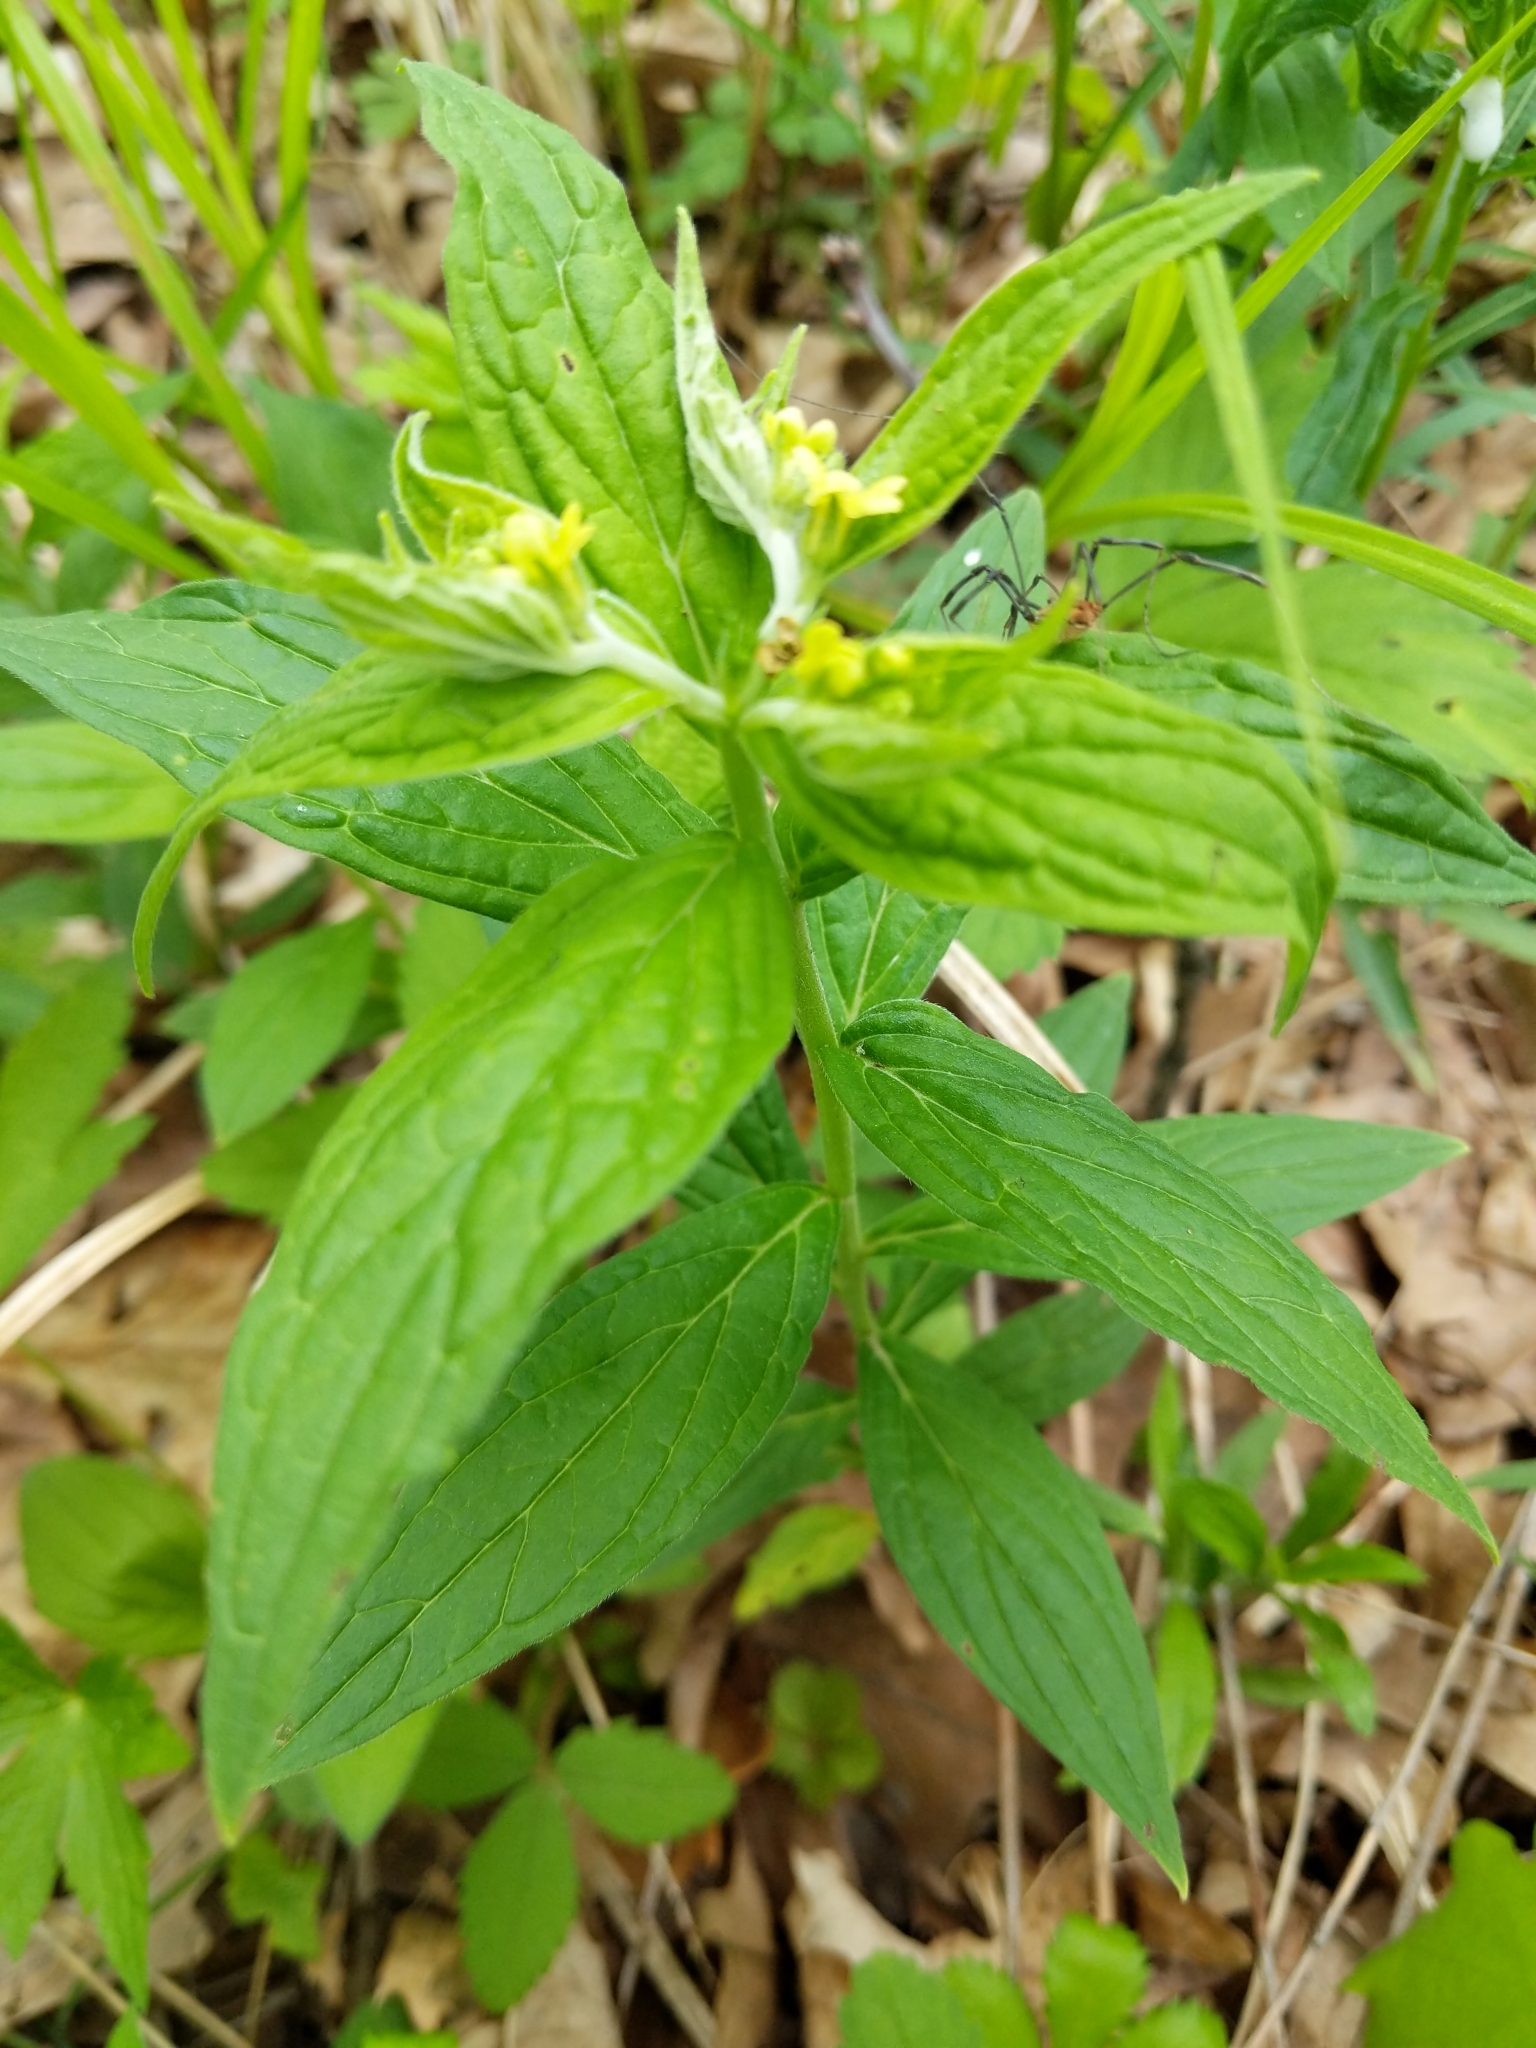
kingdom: Plantae
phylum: Tracheophyta
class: Magnoliopsida
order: Boraginales
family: Boraginaceae
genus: Lithospermum
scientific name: Lithospermum latifolium
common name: American gromwell
